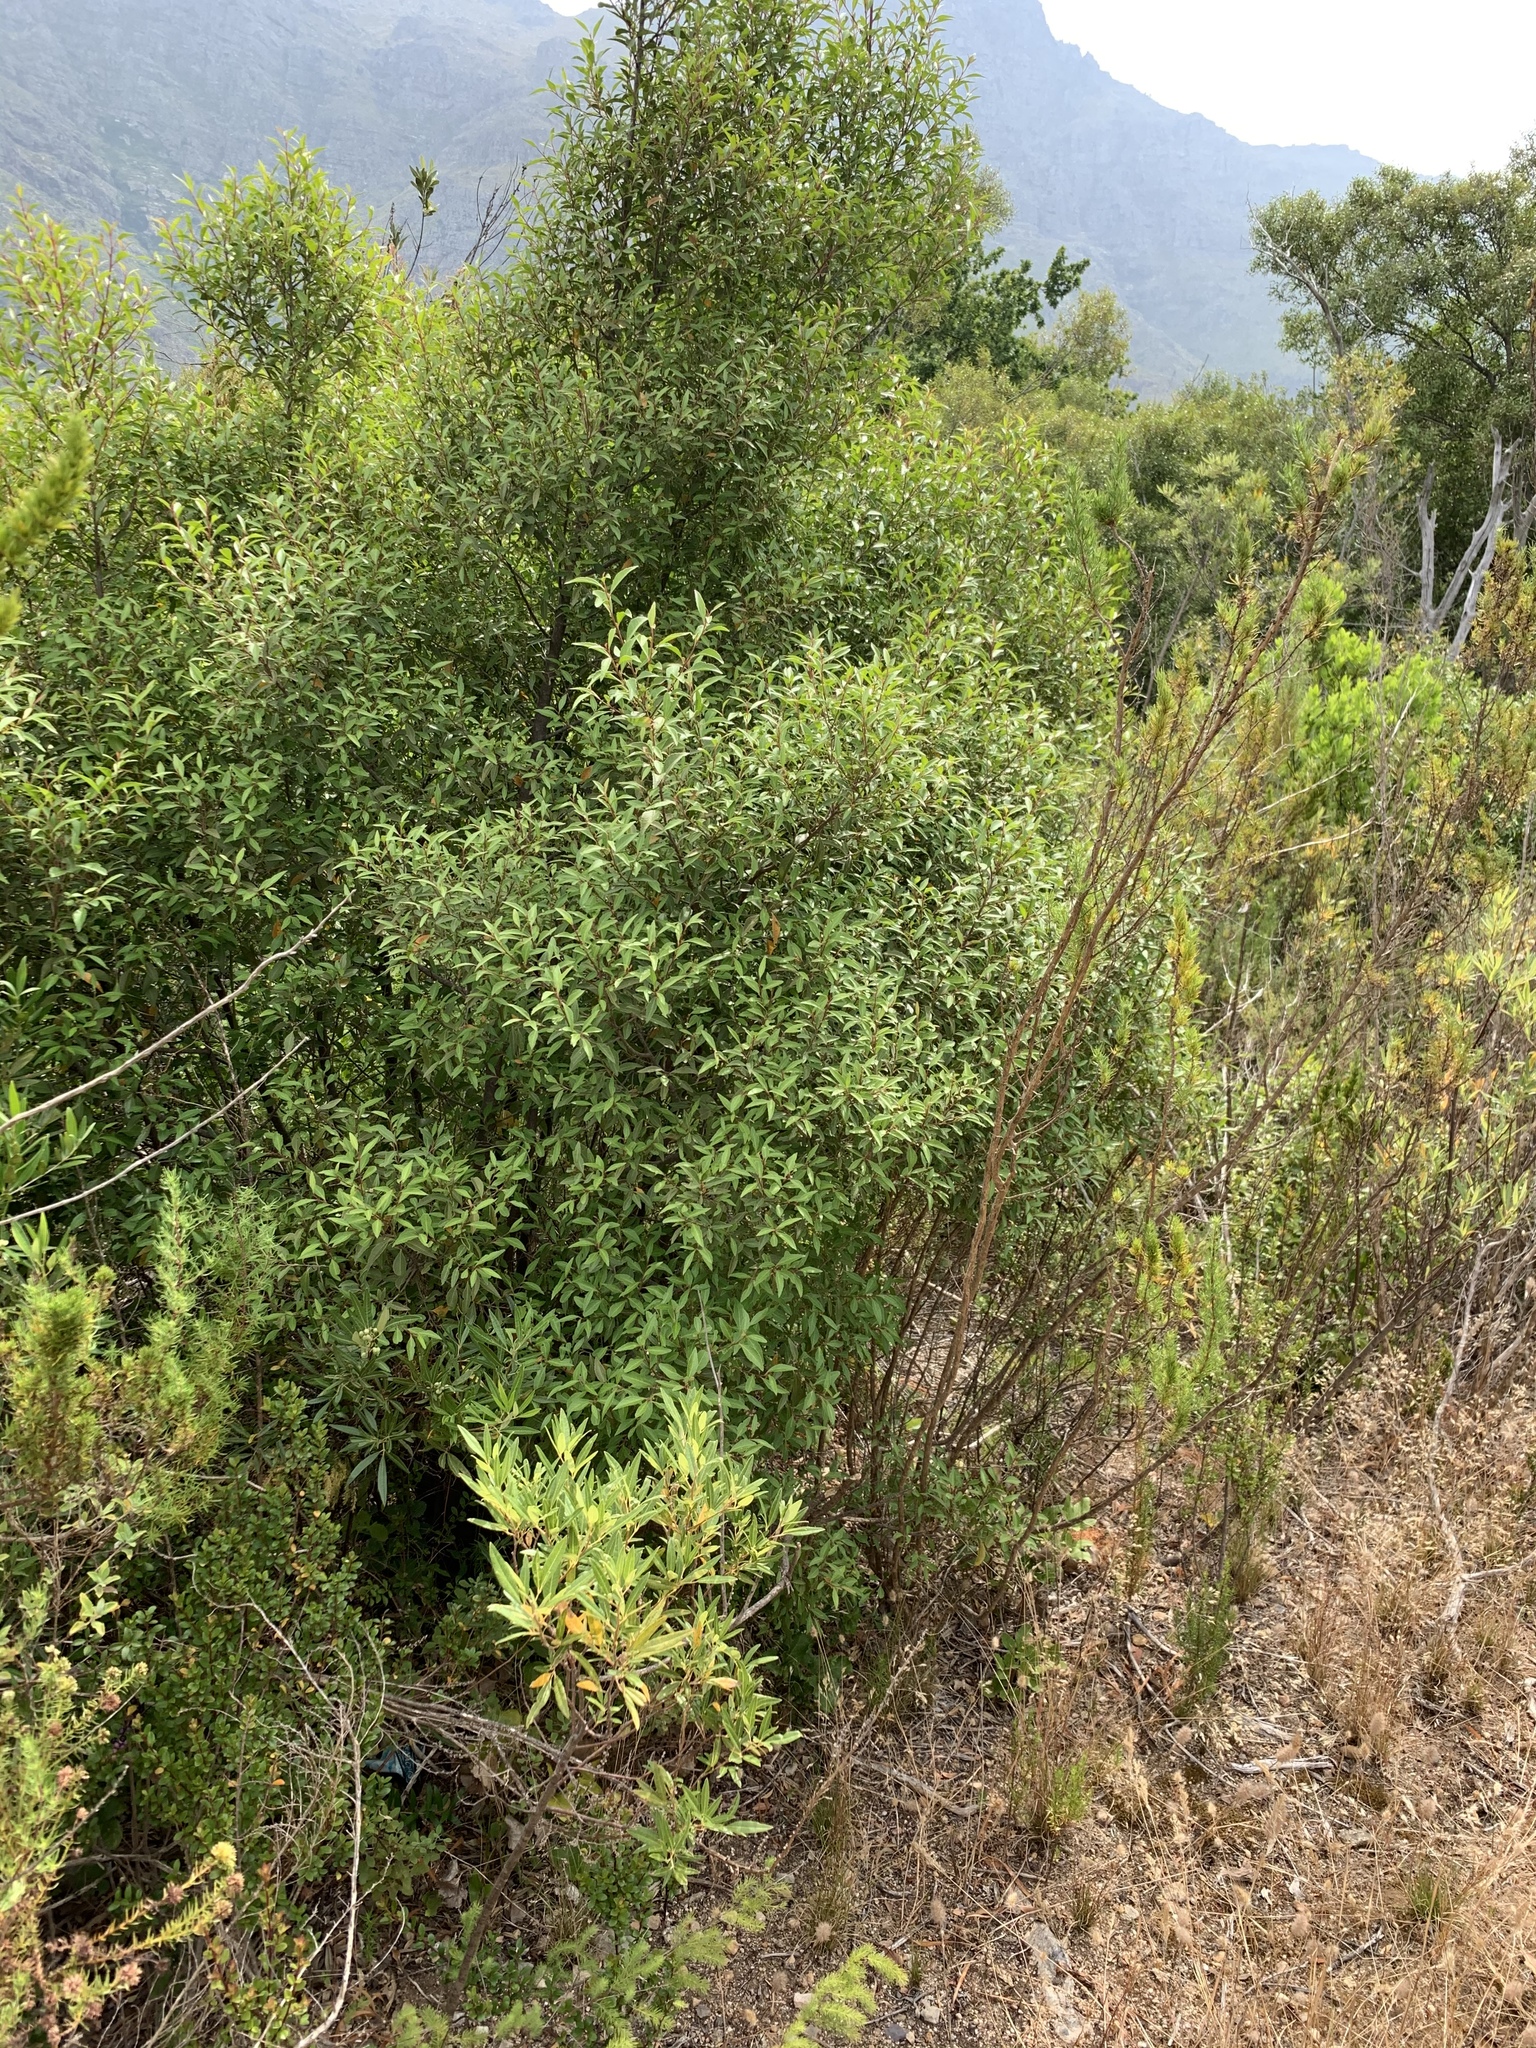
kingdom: Plantae
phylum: Tracheophyta
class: Magnoliopsida
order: Celastrales
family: Celastraceae
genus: Gymnosporia
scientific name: Gymnosporia acuminata
